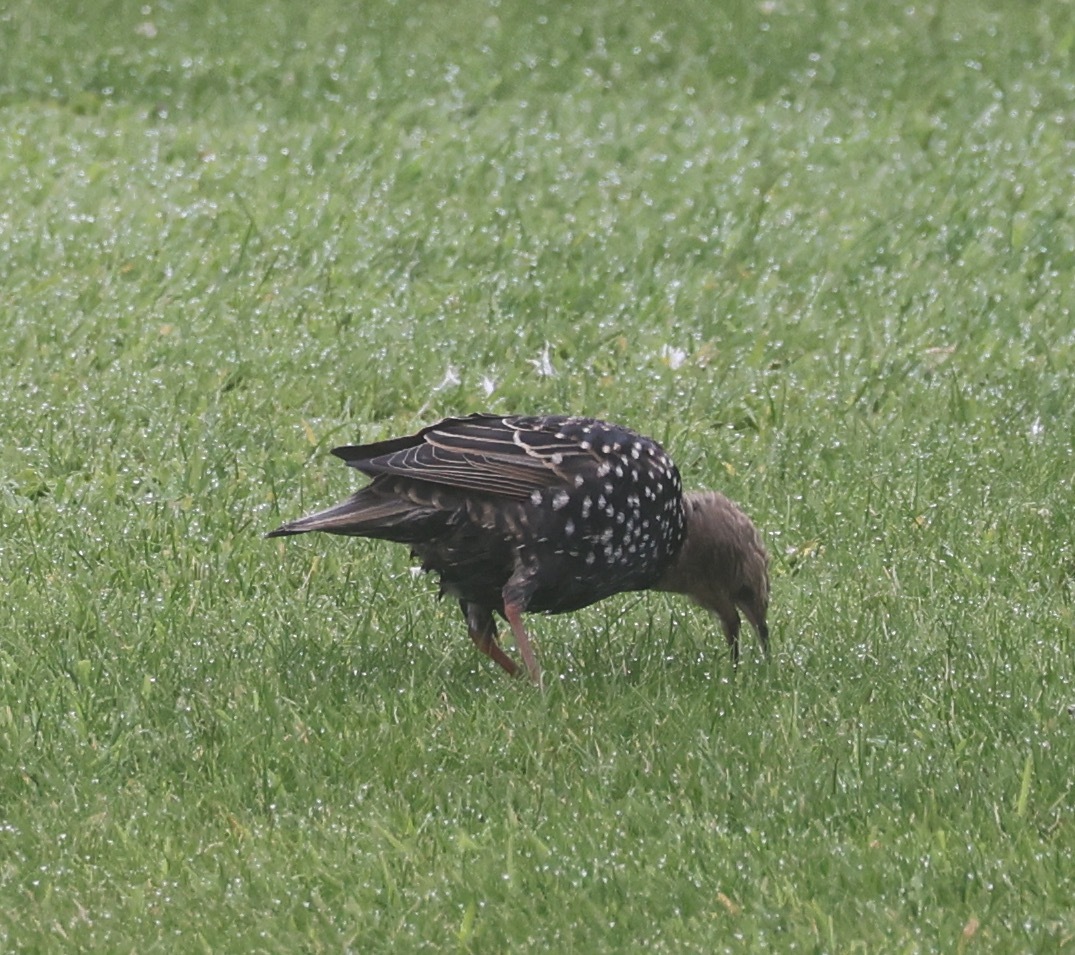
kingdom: Animalia
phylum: Chordata
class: Aves
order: Passeriformes
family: Sturnidae
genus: Sturnus
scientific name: Sturnus vulgaris
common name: Common starling
